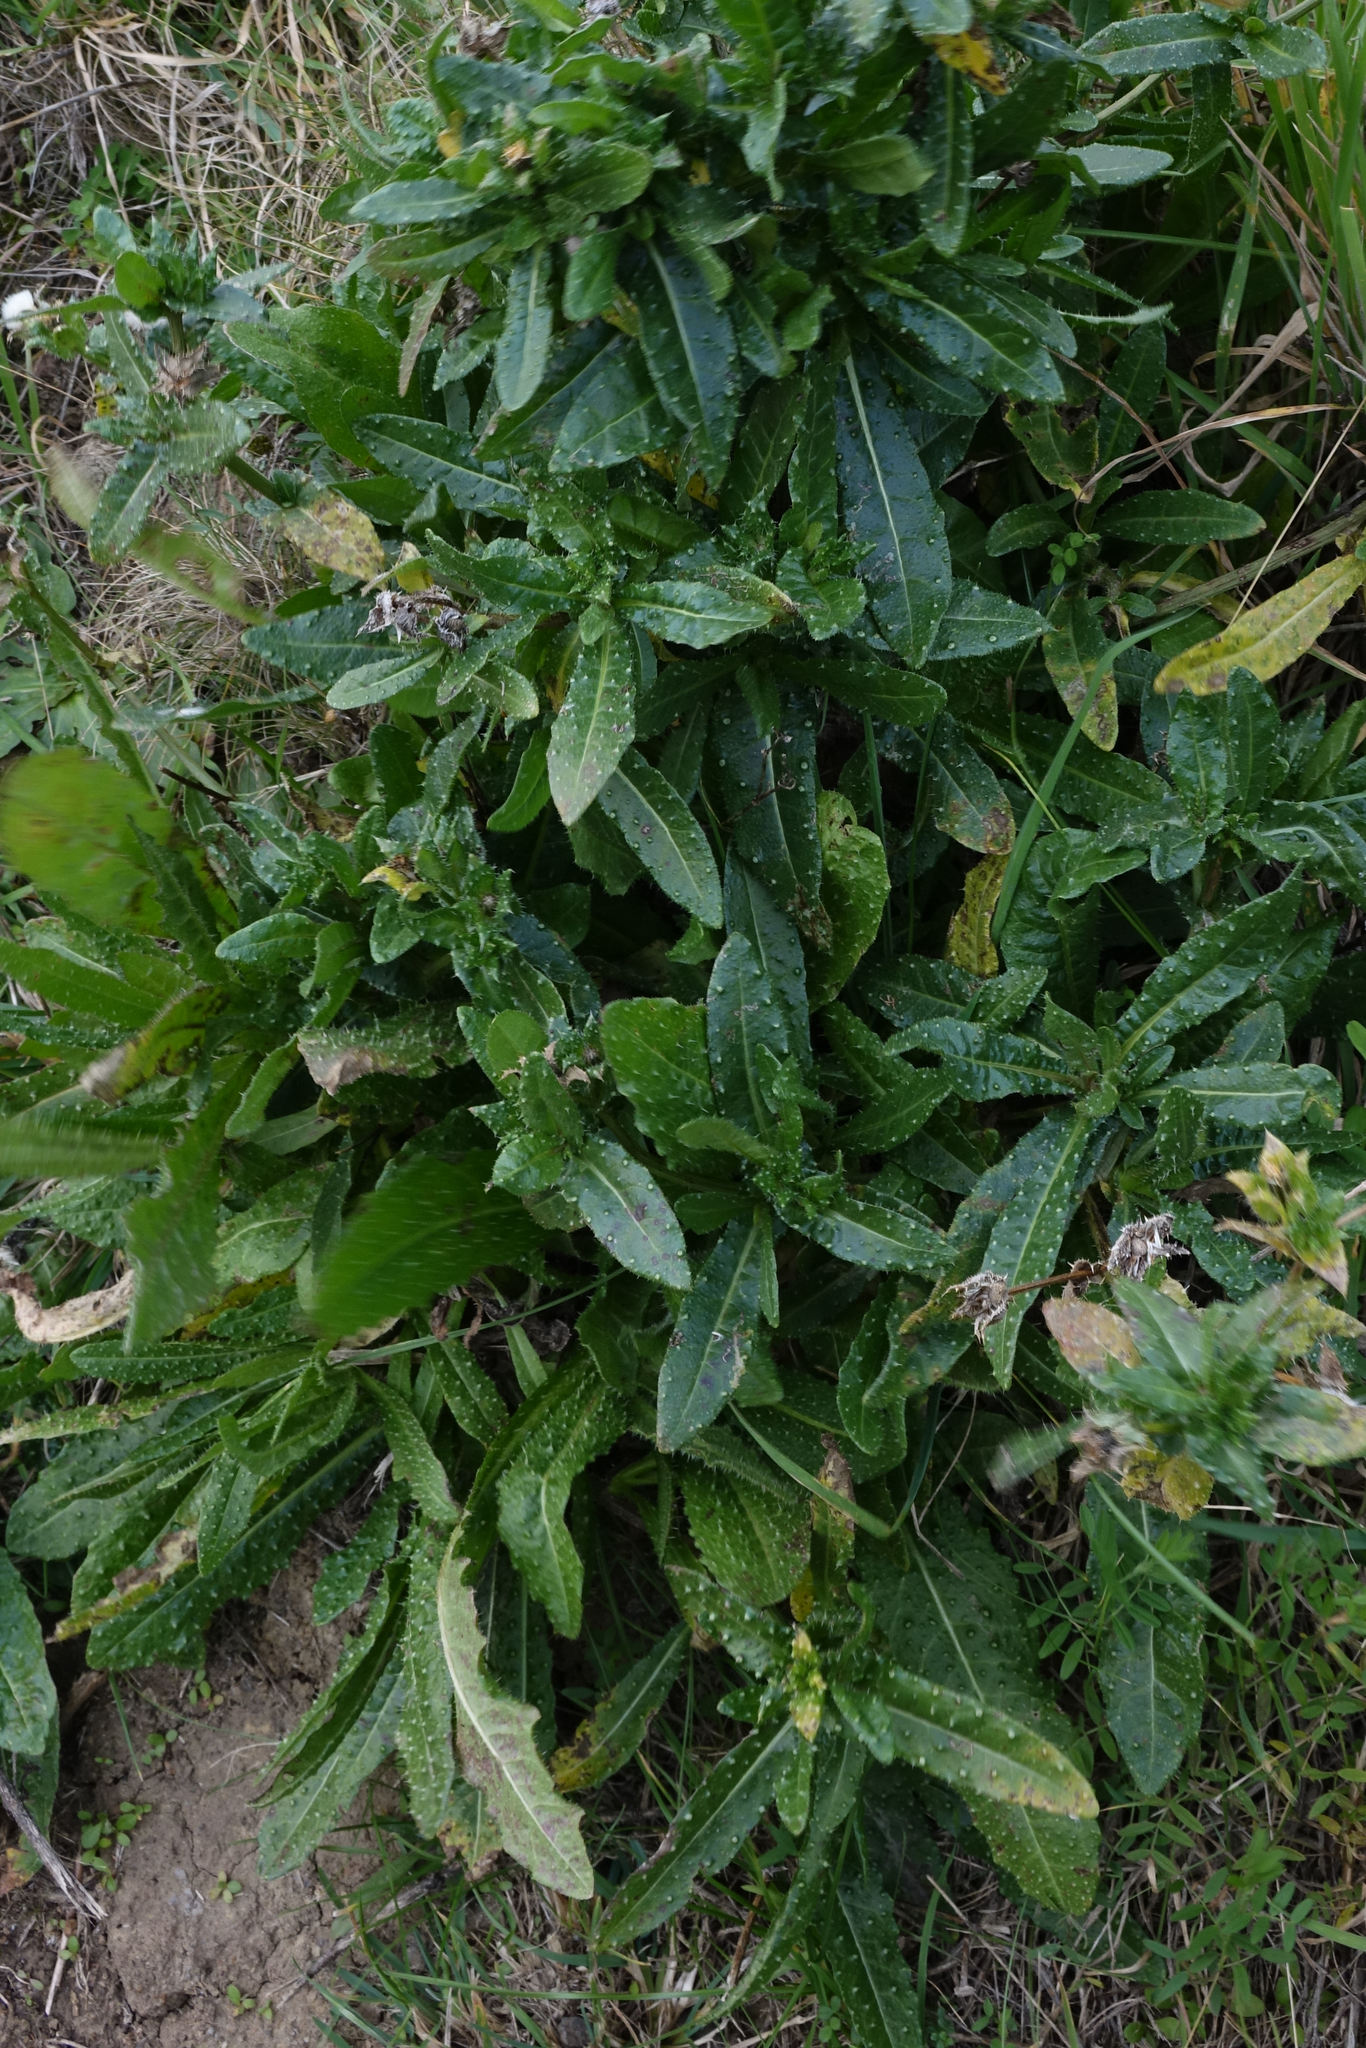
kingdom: Plantae
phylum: Tracheophyta
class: Magnoliopsida
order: Asterales
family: Asteraceae
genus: Helminthotheca
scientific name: Helminthotheca echioides
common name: Ox-tongue
